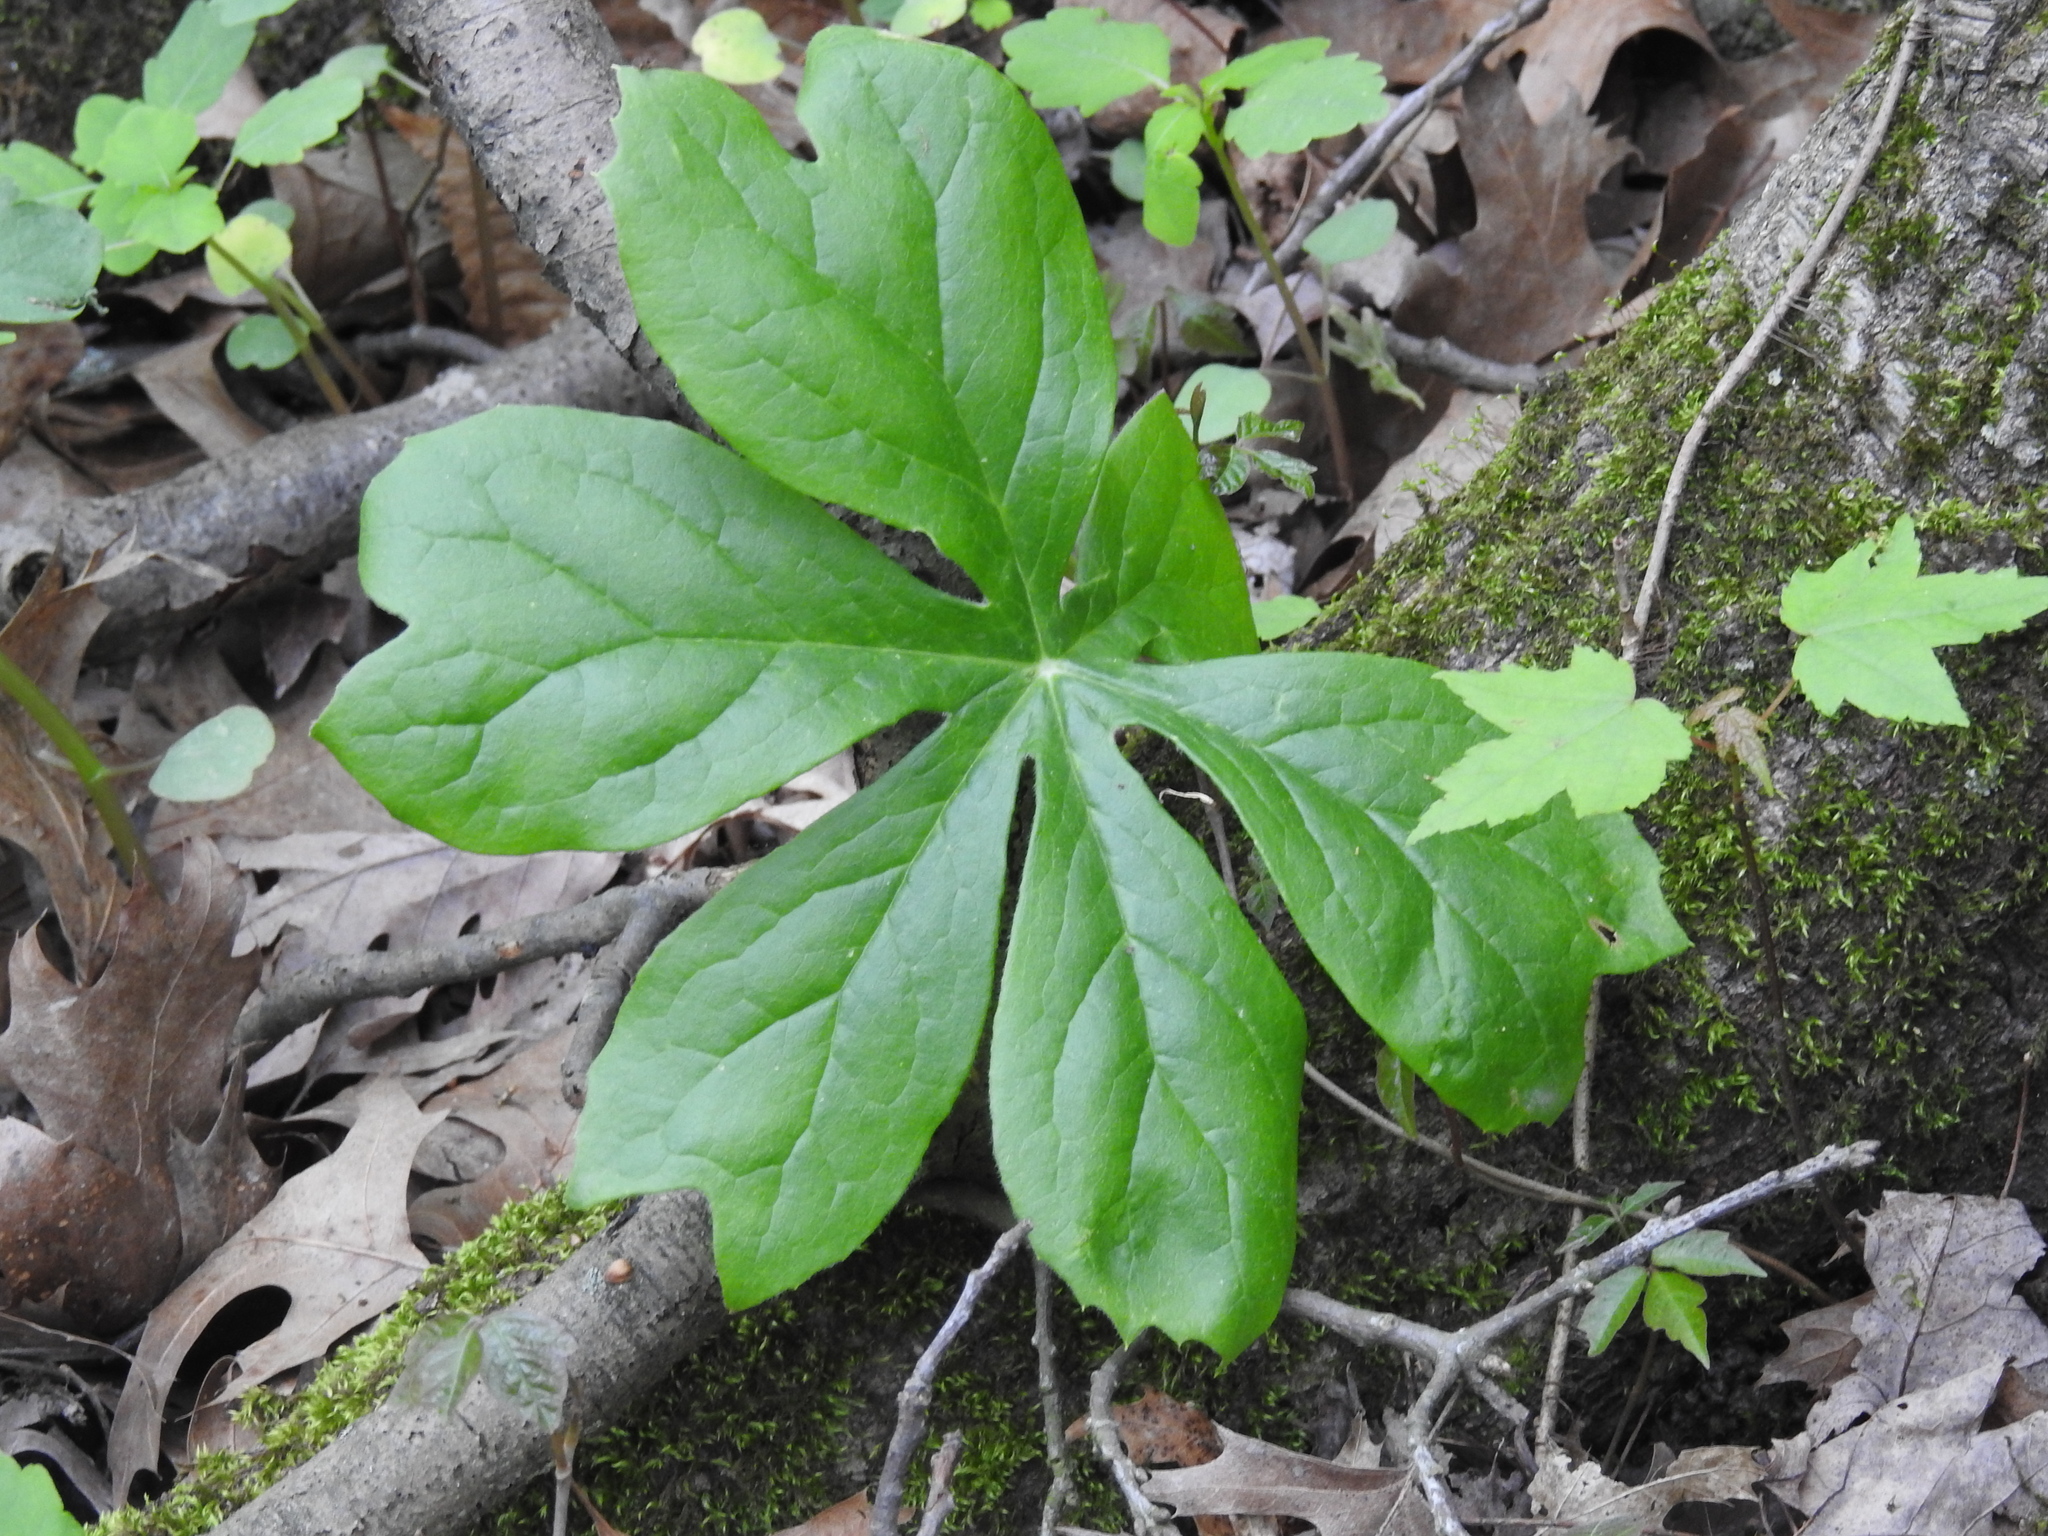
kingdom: Plantae
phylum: Tracheophyta
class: Magnoliopsida
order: Ranunculales
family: Berberidaceae
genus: Podophyllum
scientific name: Podophyllum peltatum
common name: Wild mandrake
